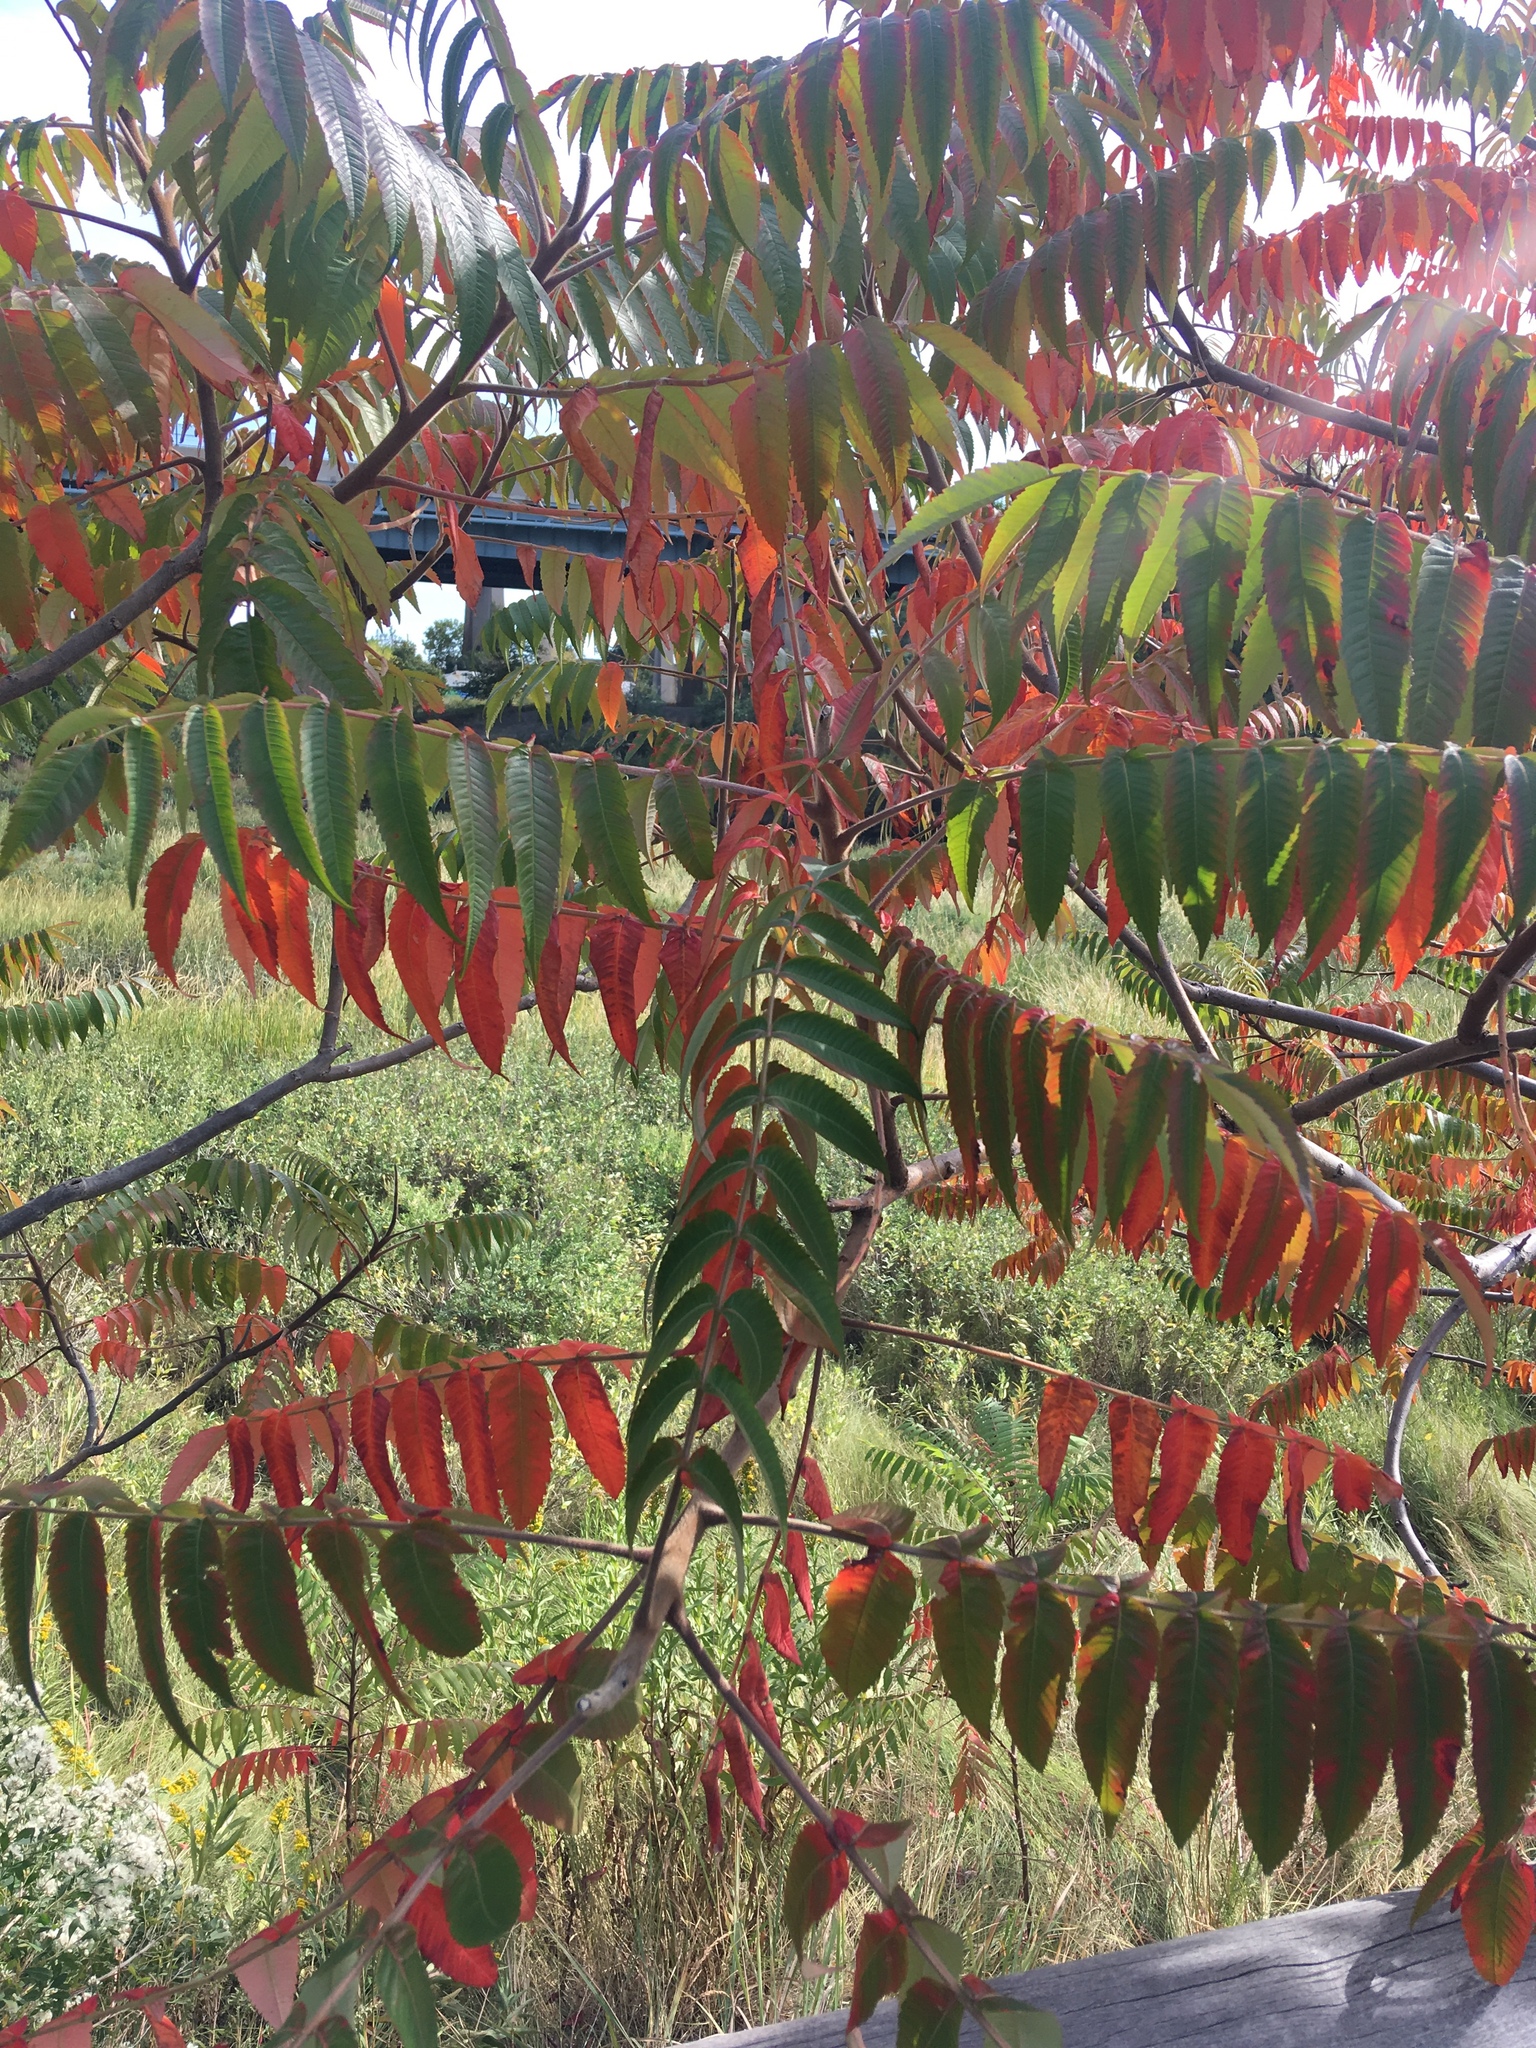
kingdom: Plantae
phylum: Tracheophyta
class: Magnoliopsida
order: Sapindales
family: Anacardiaceae
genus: Rhus
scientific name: Rhus typhina
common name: Staghorn sumac
